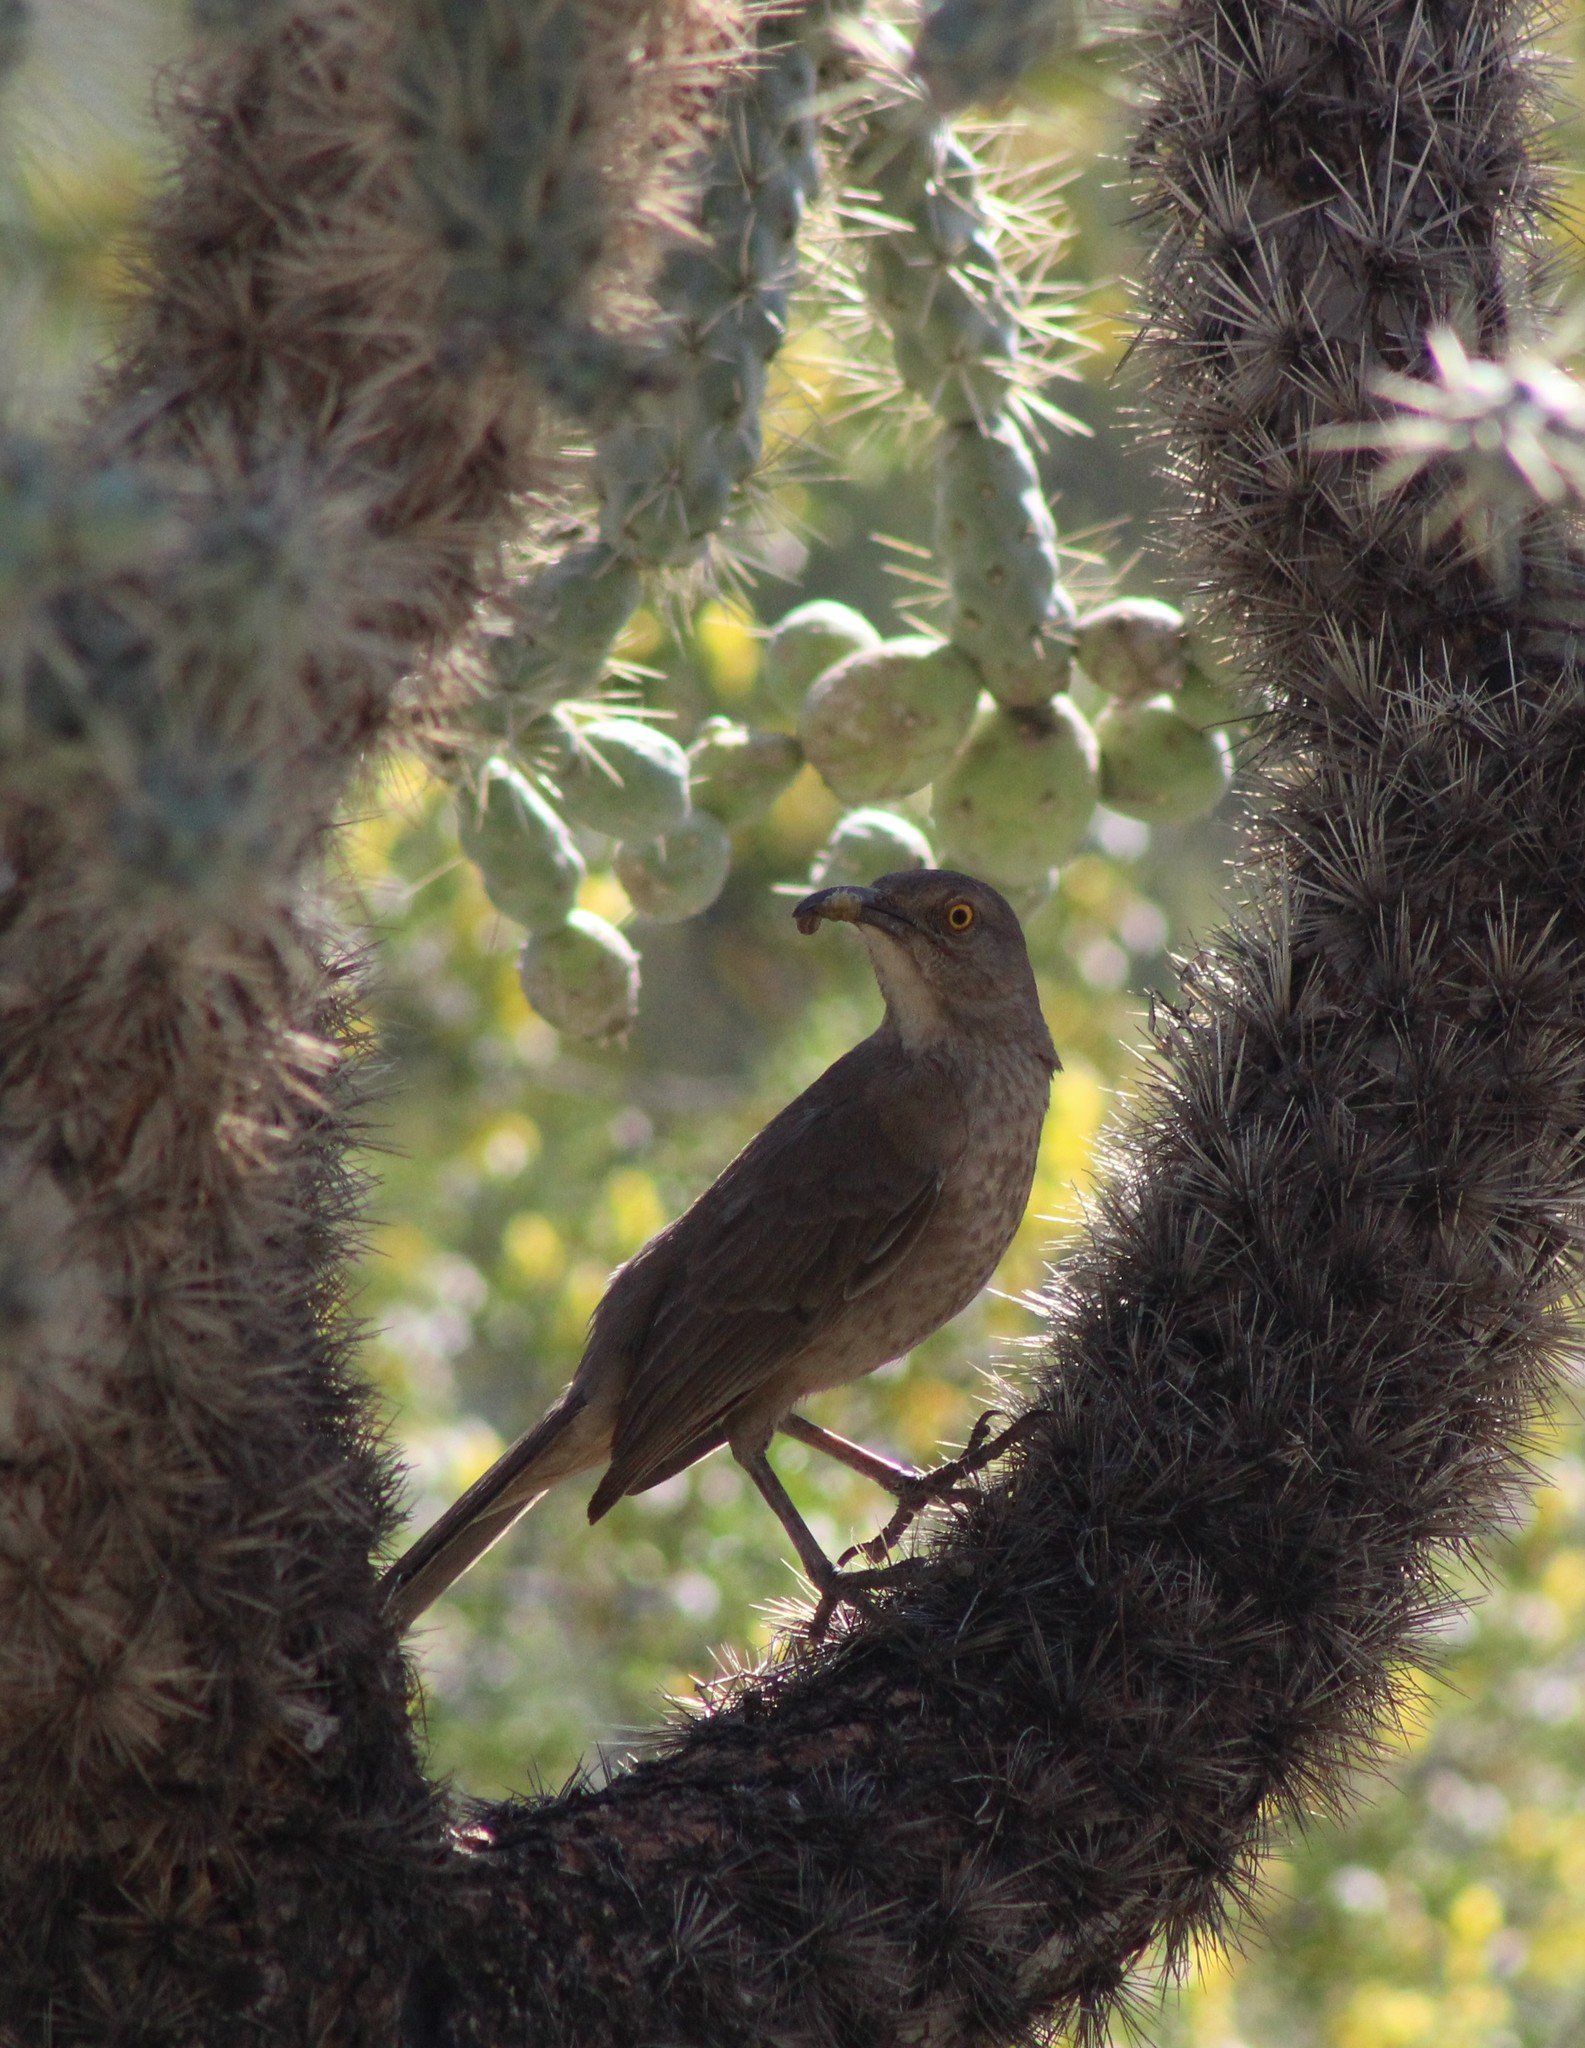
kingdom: Animalia
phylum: Chordata
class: Aves
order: Passeriformes
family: Mimidae
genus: Toxostoma
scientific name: Toxostoma curvirostre
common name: Curve-billed thrasher
